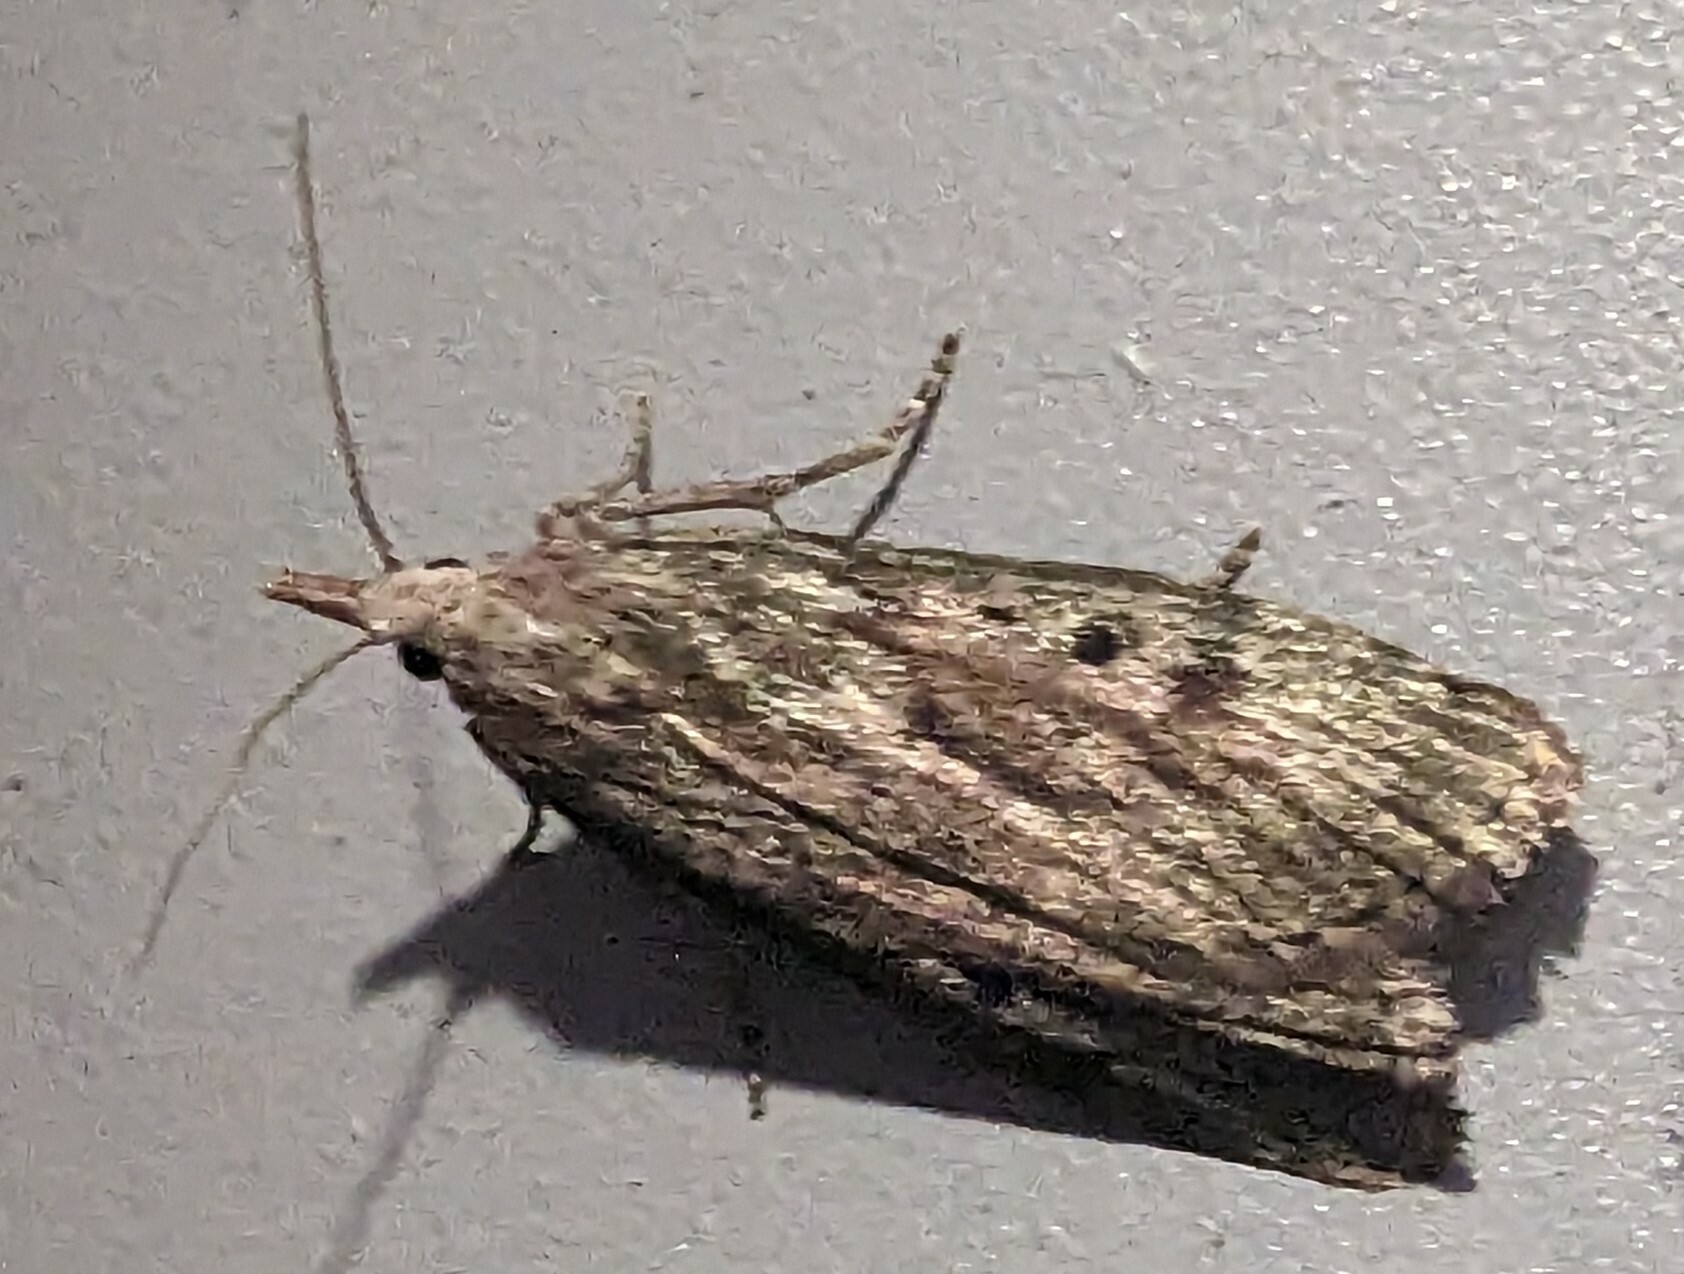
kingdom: Animalia
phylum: Arthropoda
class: Insecta
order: Lepidoptera
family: Pyralidae
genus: Aphomia
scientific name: Aphomia sociella
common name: Bee moth
